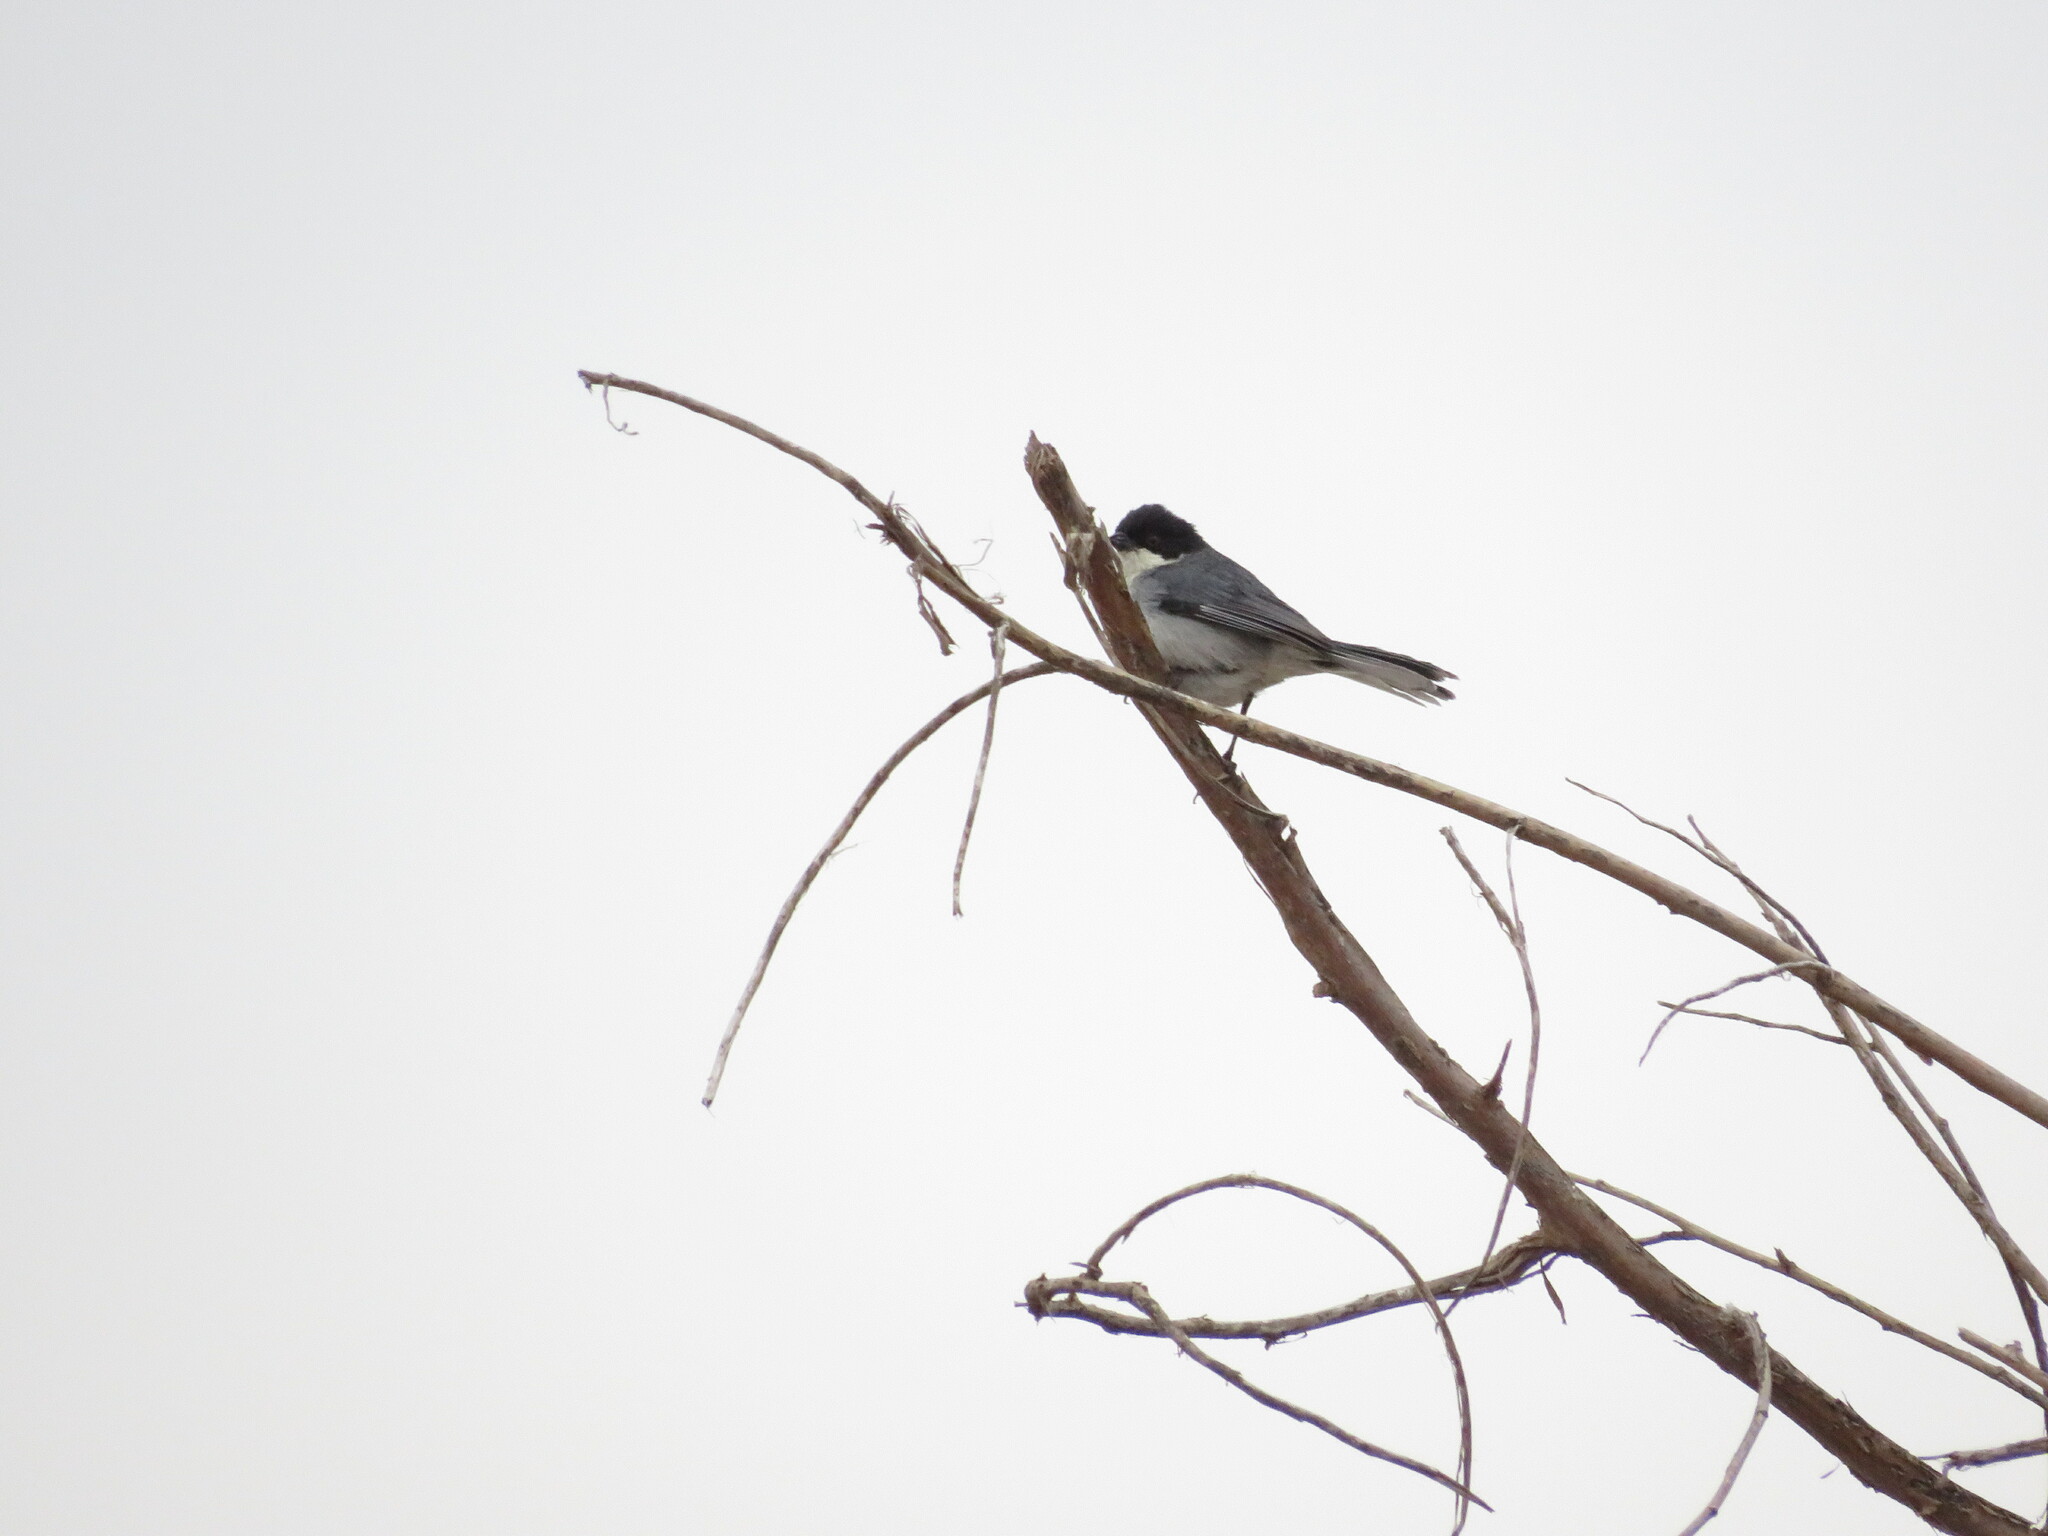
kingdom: Animalia
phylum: Chordata
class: Aves
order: Passeriformes
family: Thraupidae
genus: Microspingus
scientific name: Microspingus melanoleucus
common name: Black-capped warbling-finch
